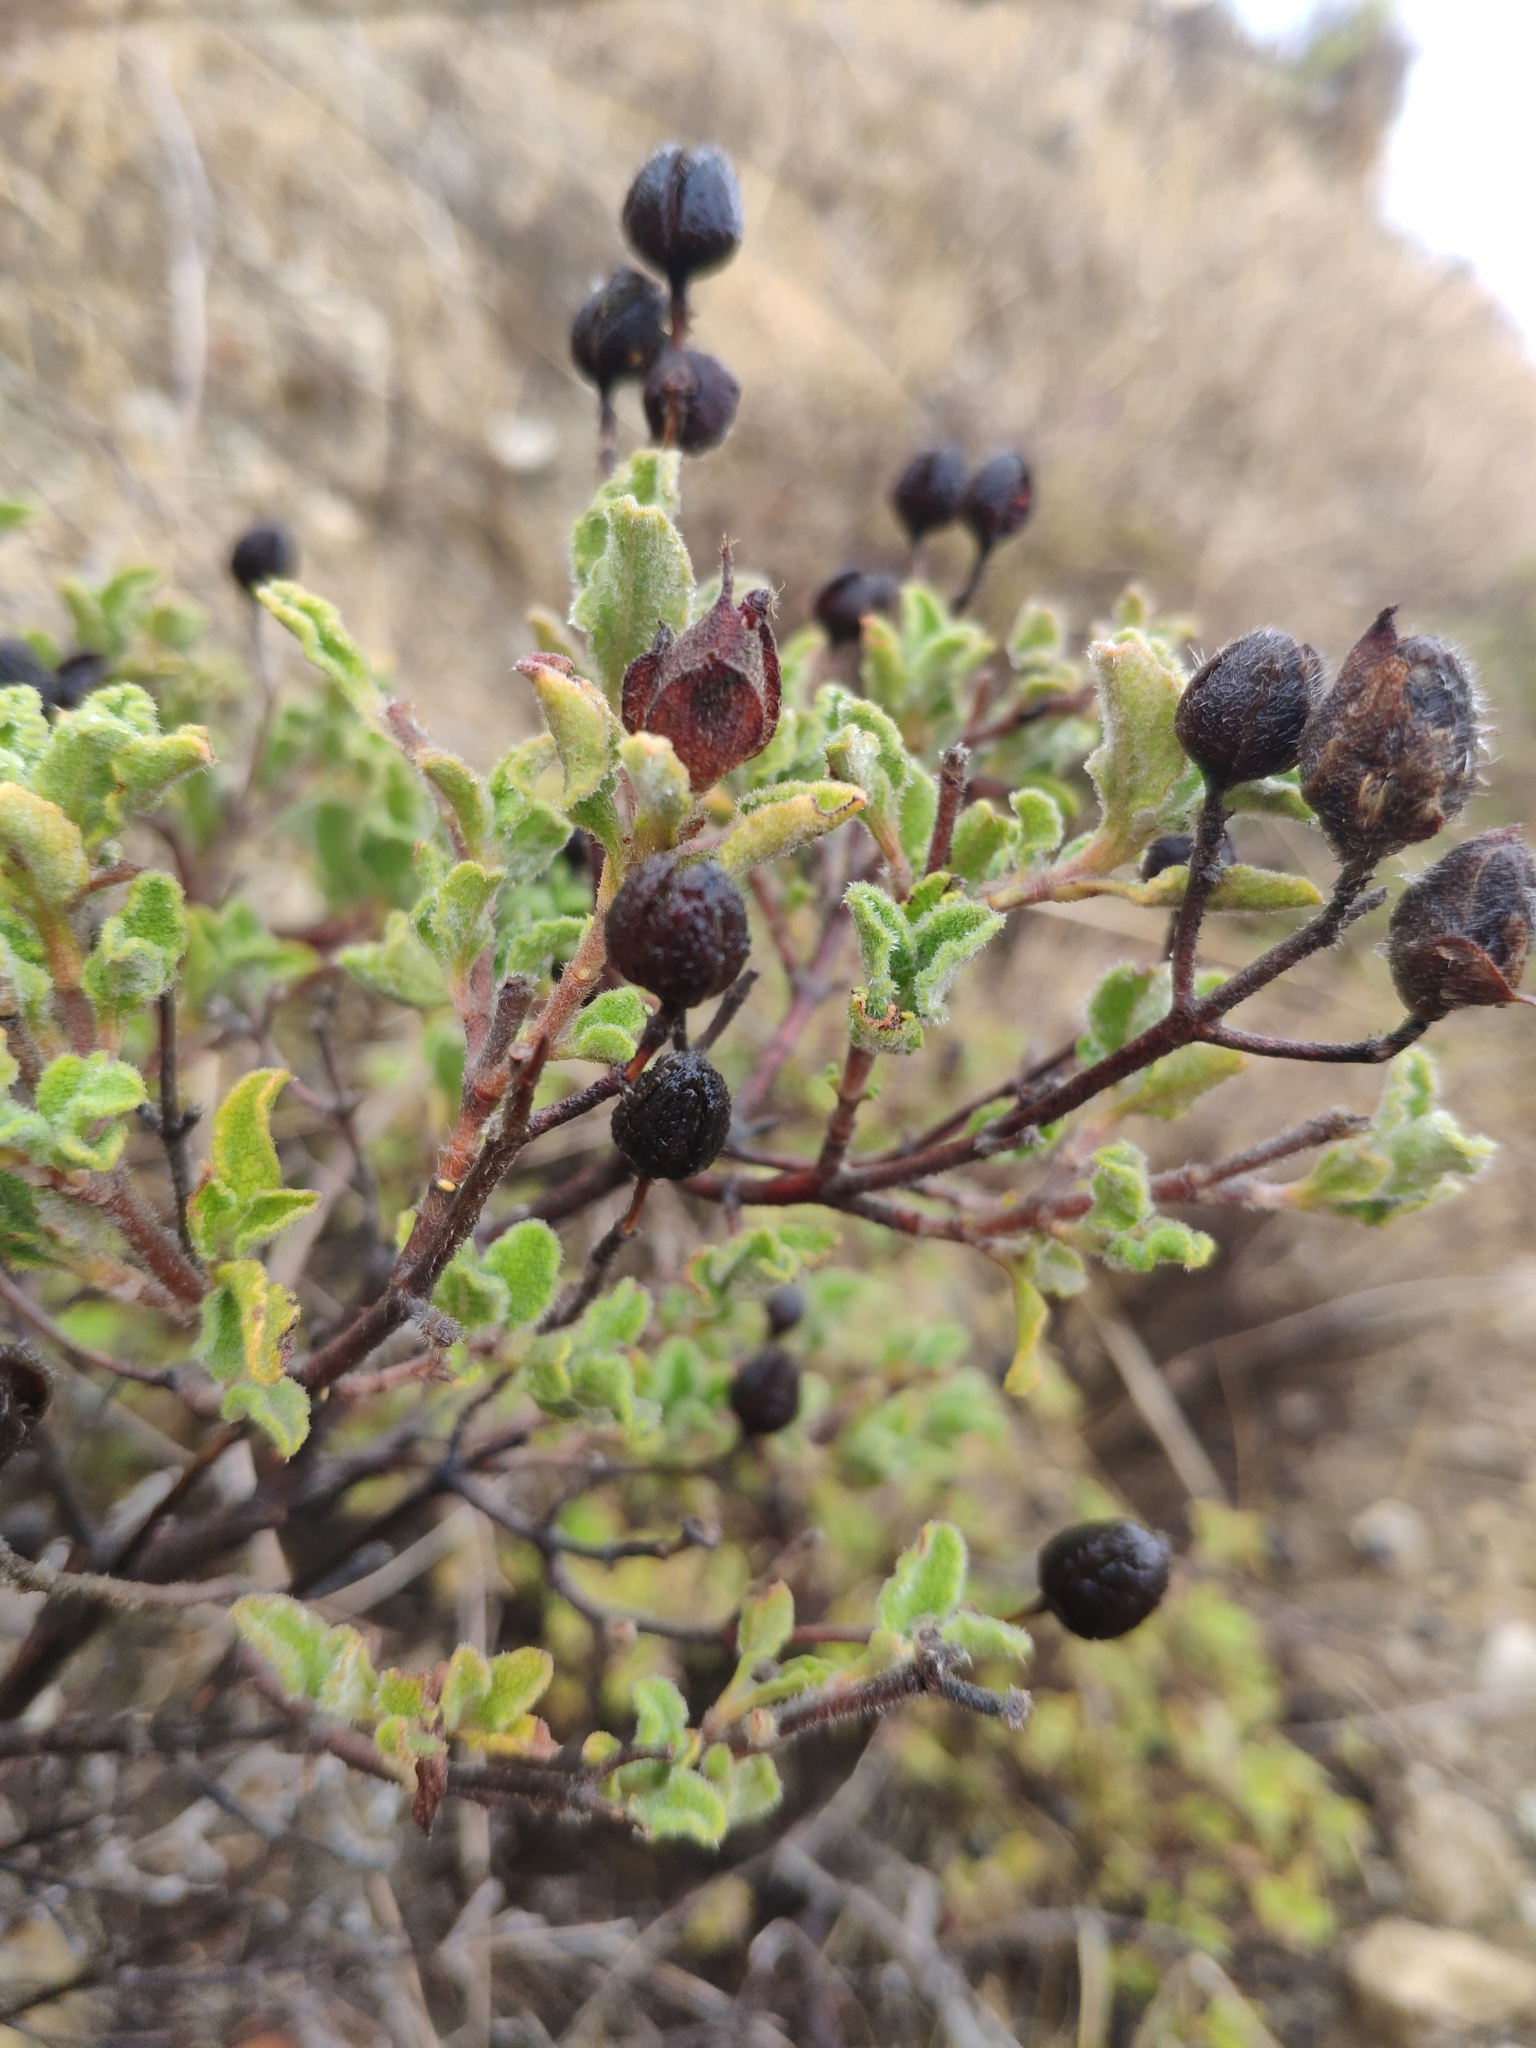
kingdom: Plantae
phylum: Tracheophyta
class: Magnoliopsida
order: Malvales
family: Cistaceae
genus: Cistus
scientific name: Cistus creticus
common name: Cretan rockrose
